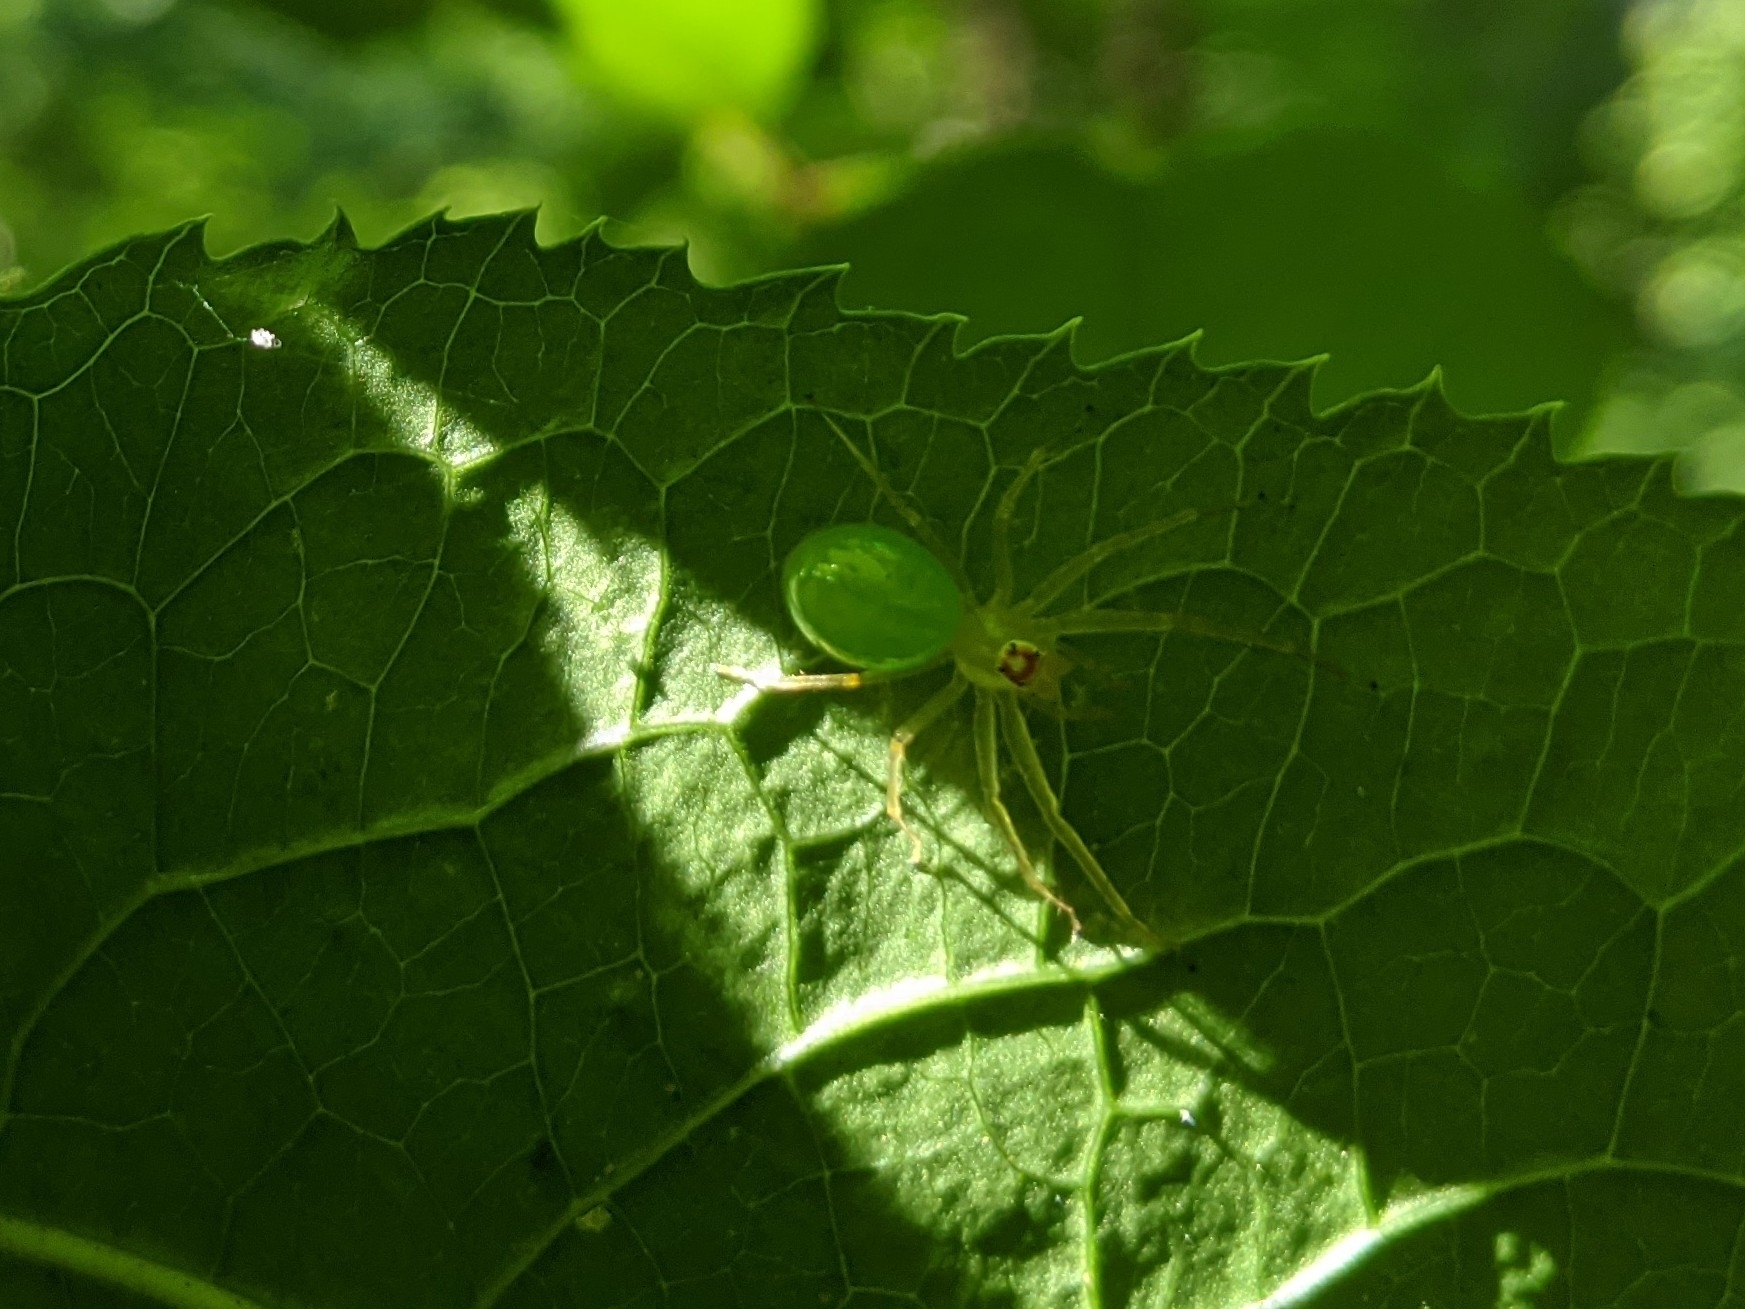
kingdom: Animalia
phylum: Arthropoda
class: Arachnida
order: Araneae
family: Salticidae
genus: Lyssomanes
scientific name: Lyssomanes viridis
